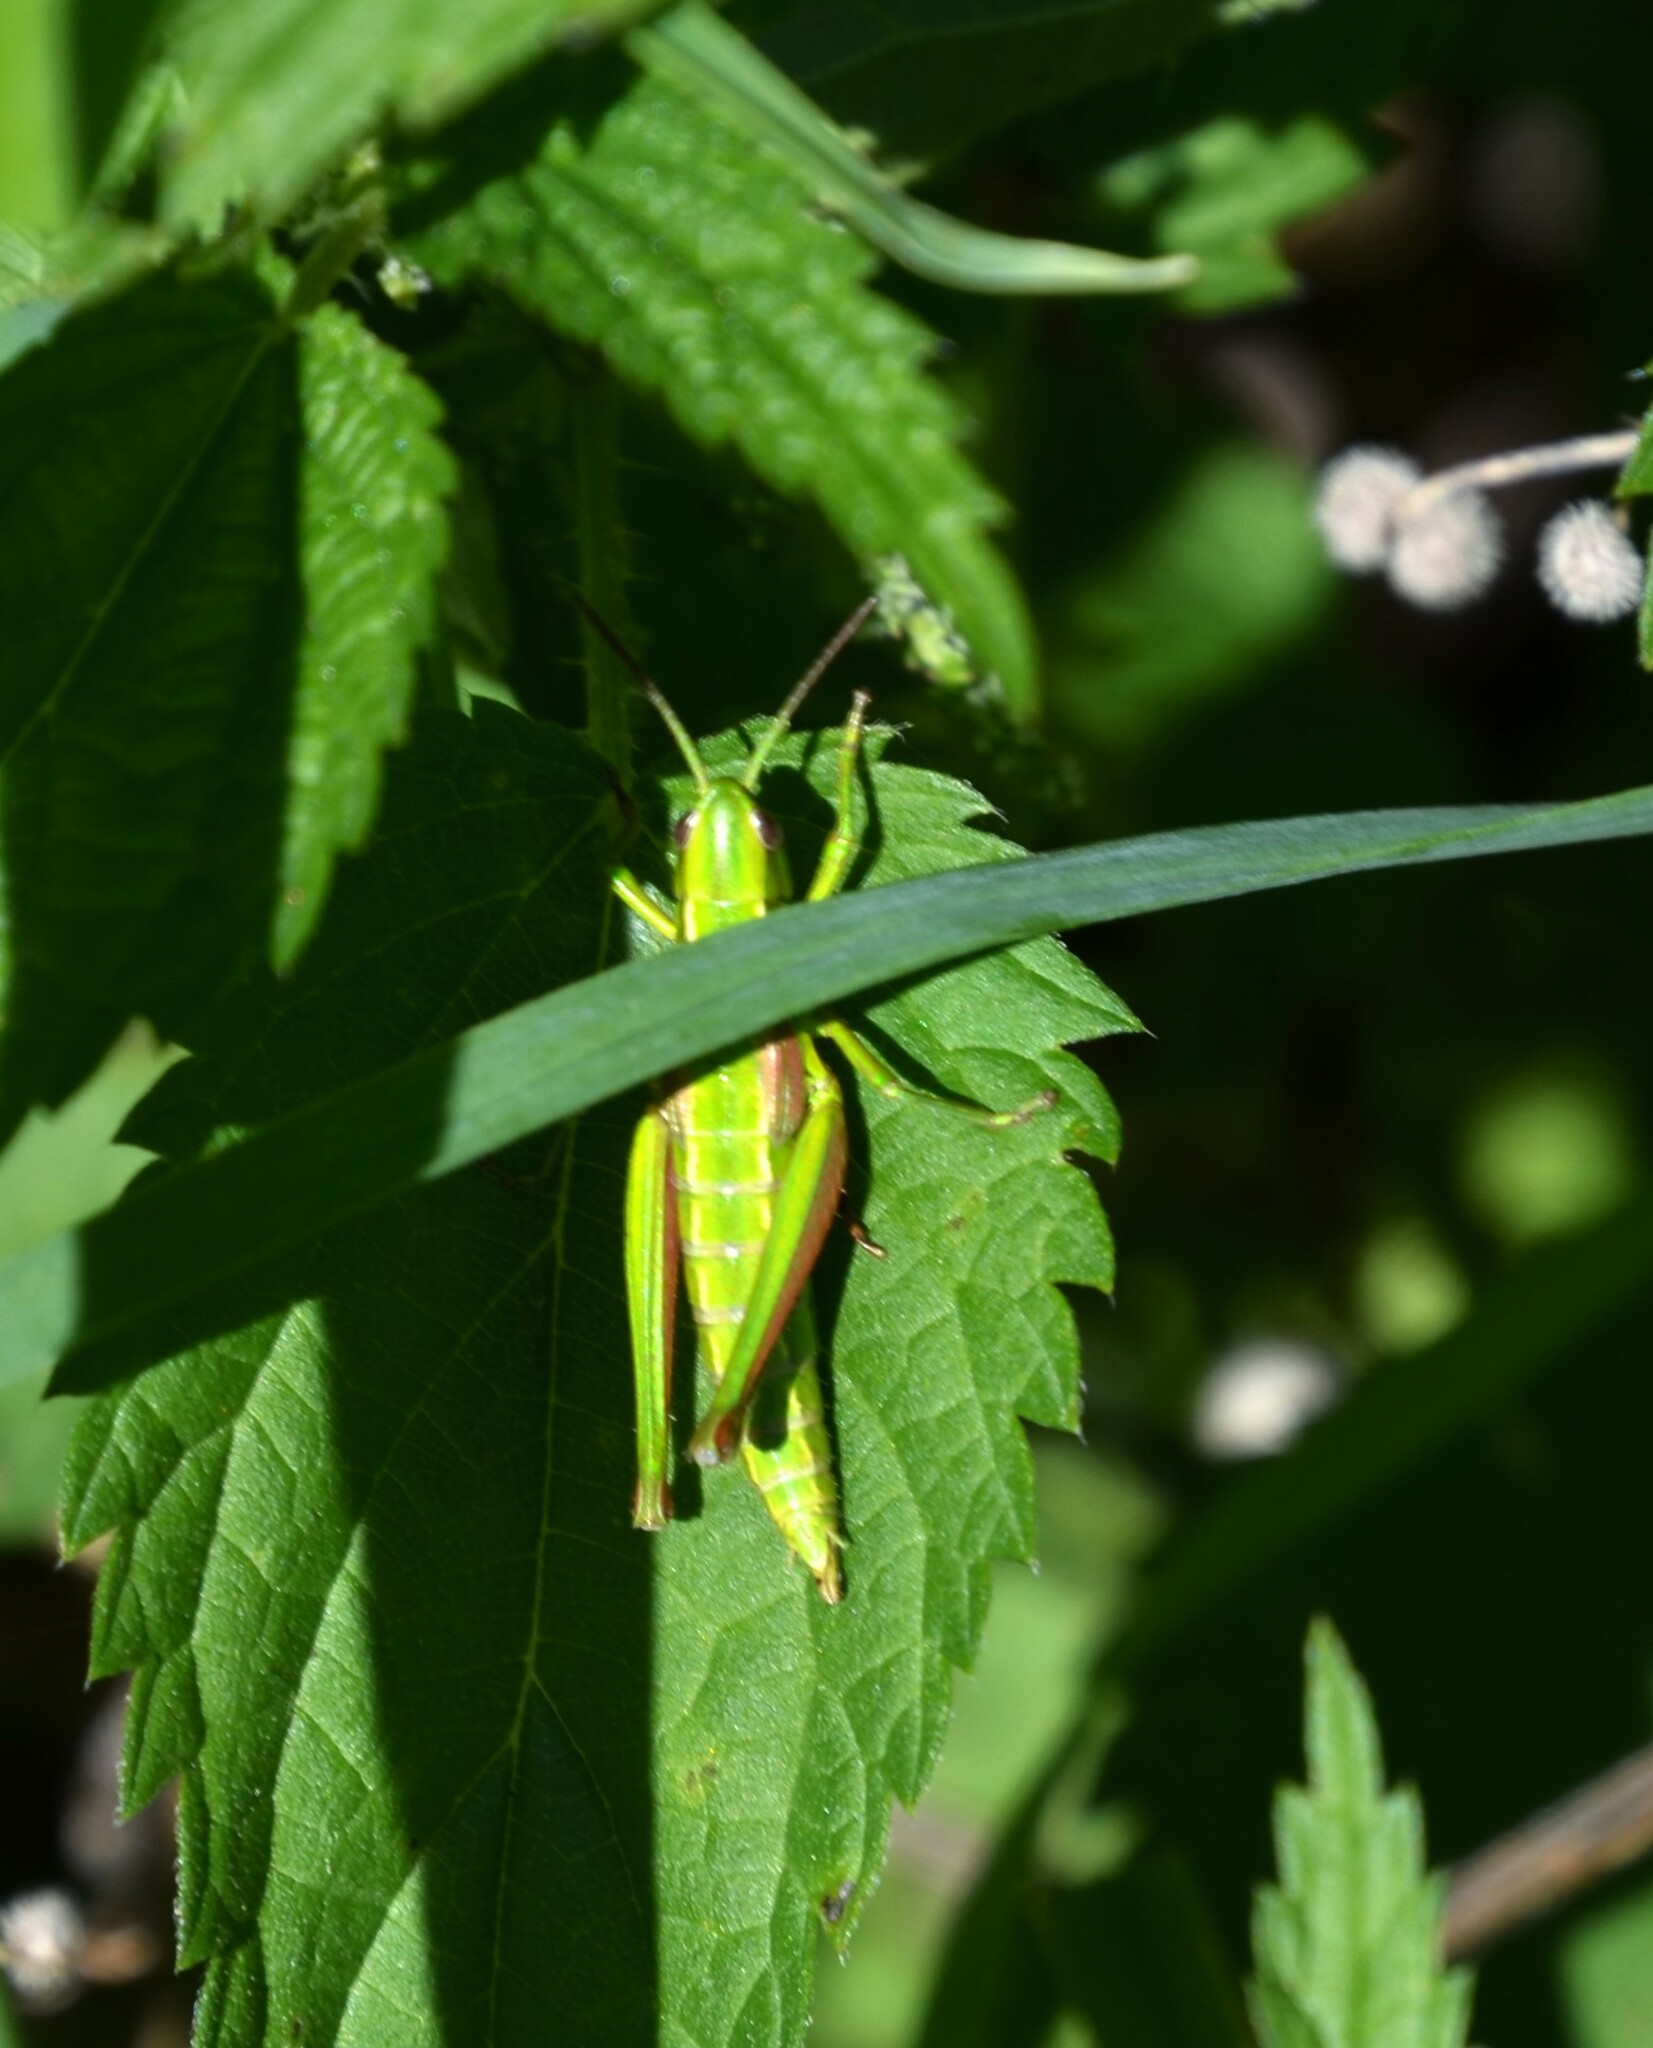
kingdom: Animalia
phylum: Arthropoda
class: Insecta
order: Orthoptera
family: Acrididae
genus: Euthystira
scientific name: Euthystira brachyptera
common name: Small gold grasshopper
